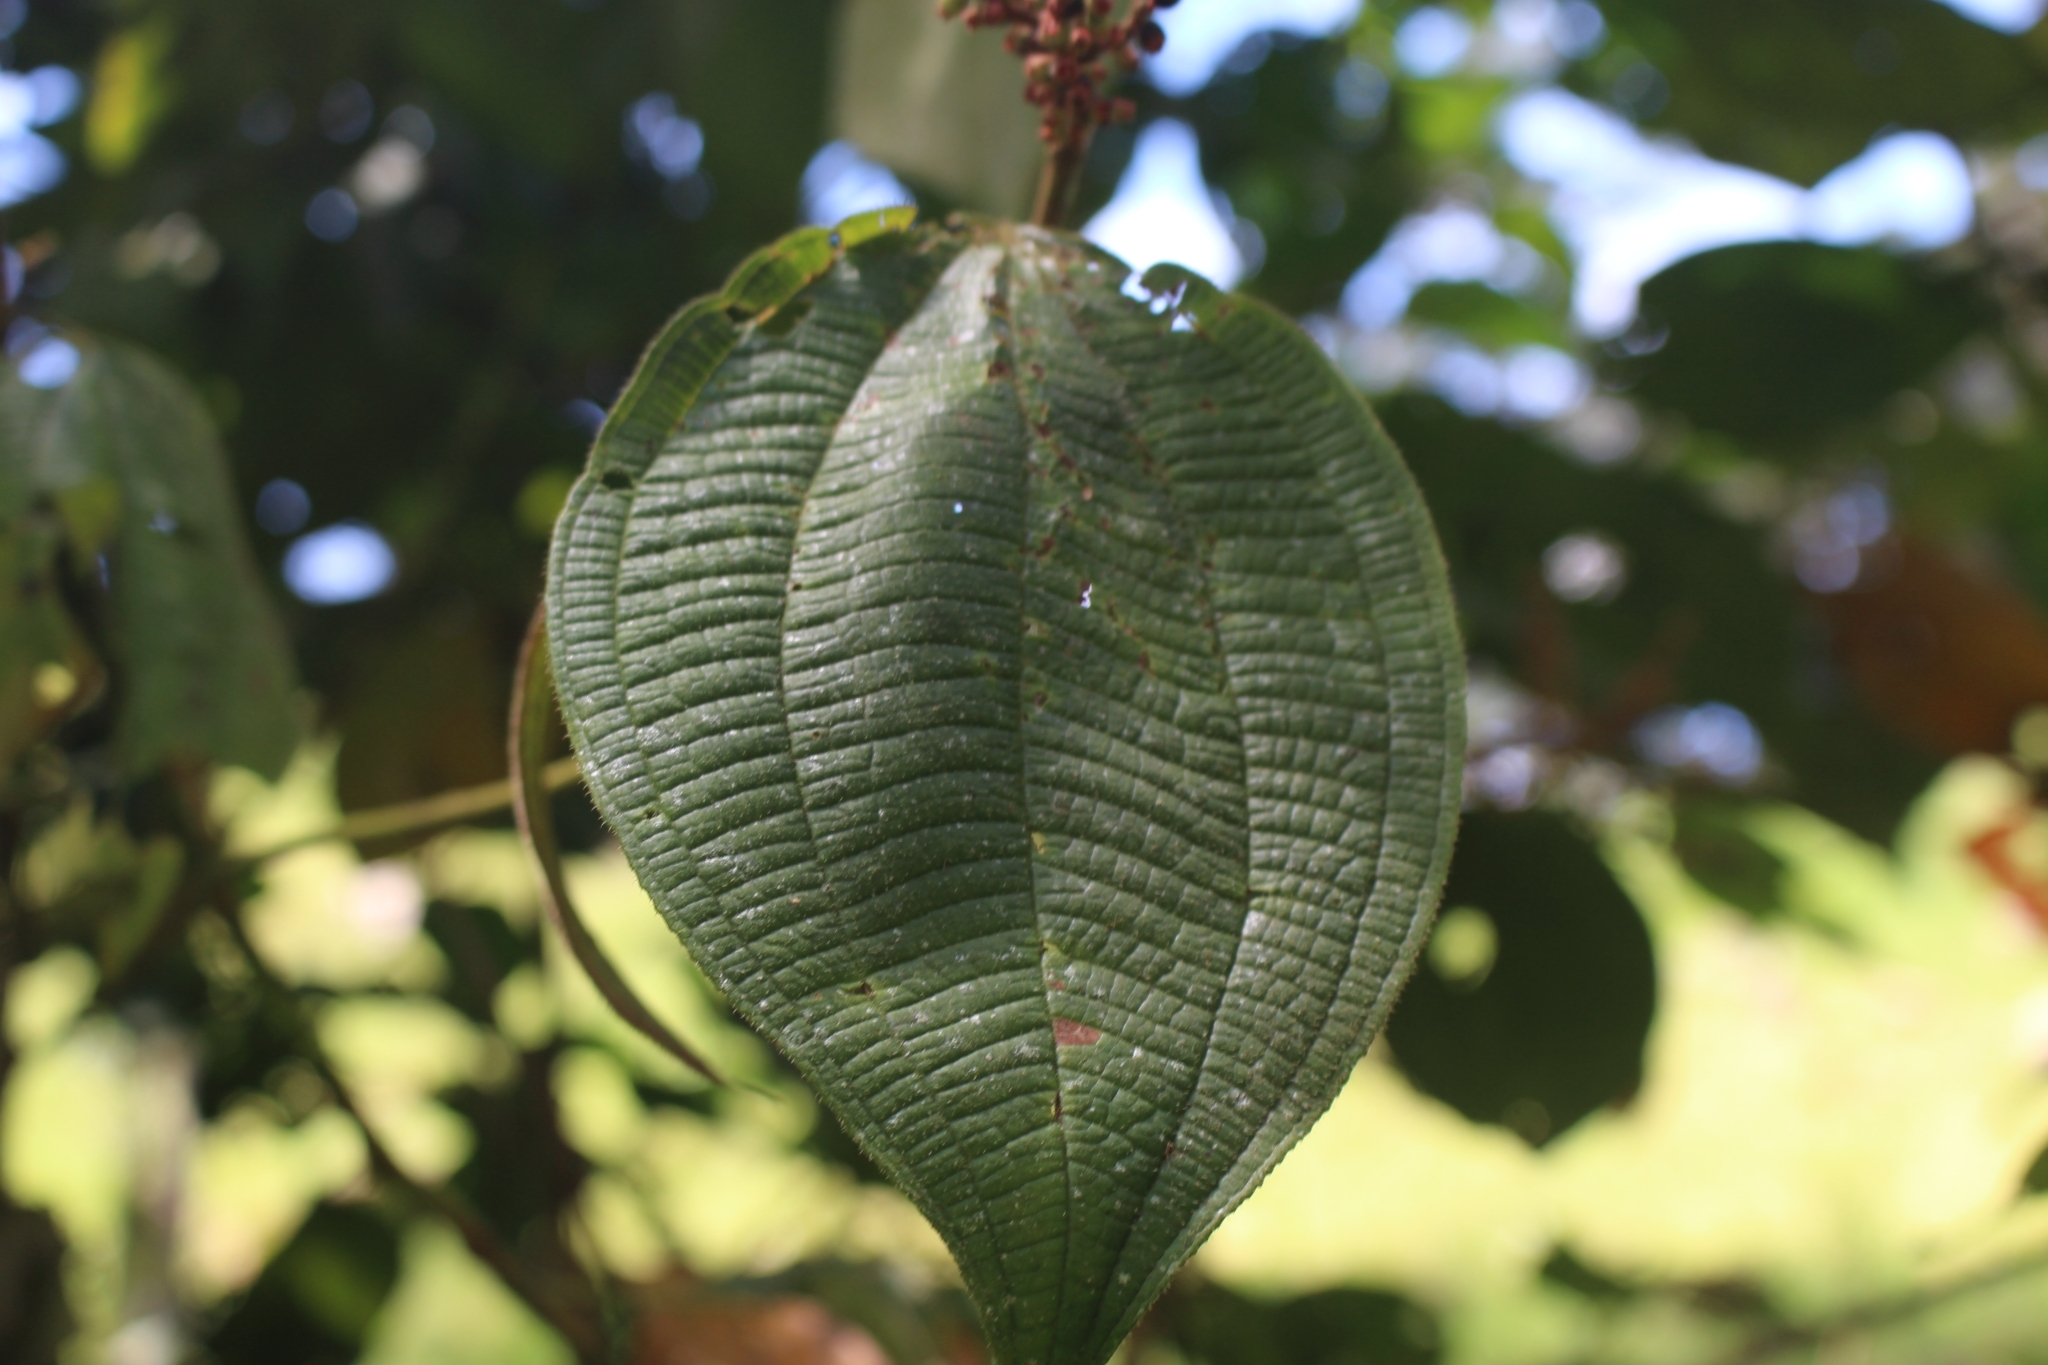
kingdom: Plantae
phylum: Tracheophyta
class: Magnoliopsida
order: Myrtales
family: Melastomataceae
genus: Miconia
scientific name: Miconia aeruginosa
